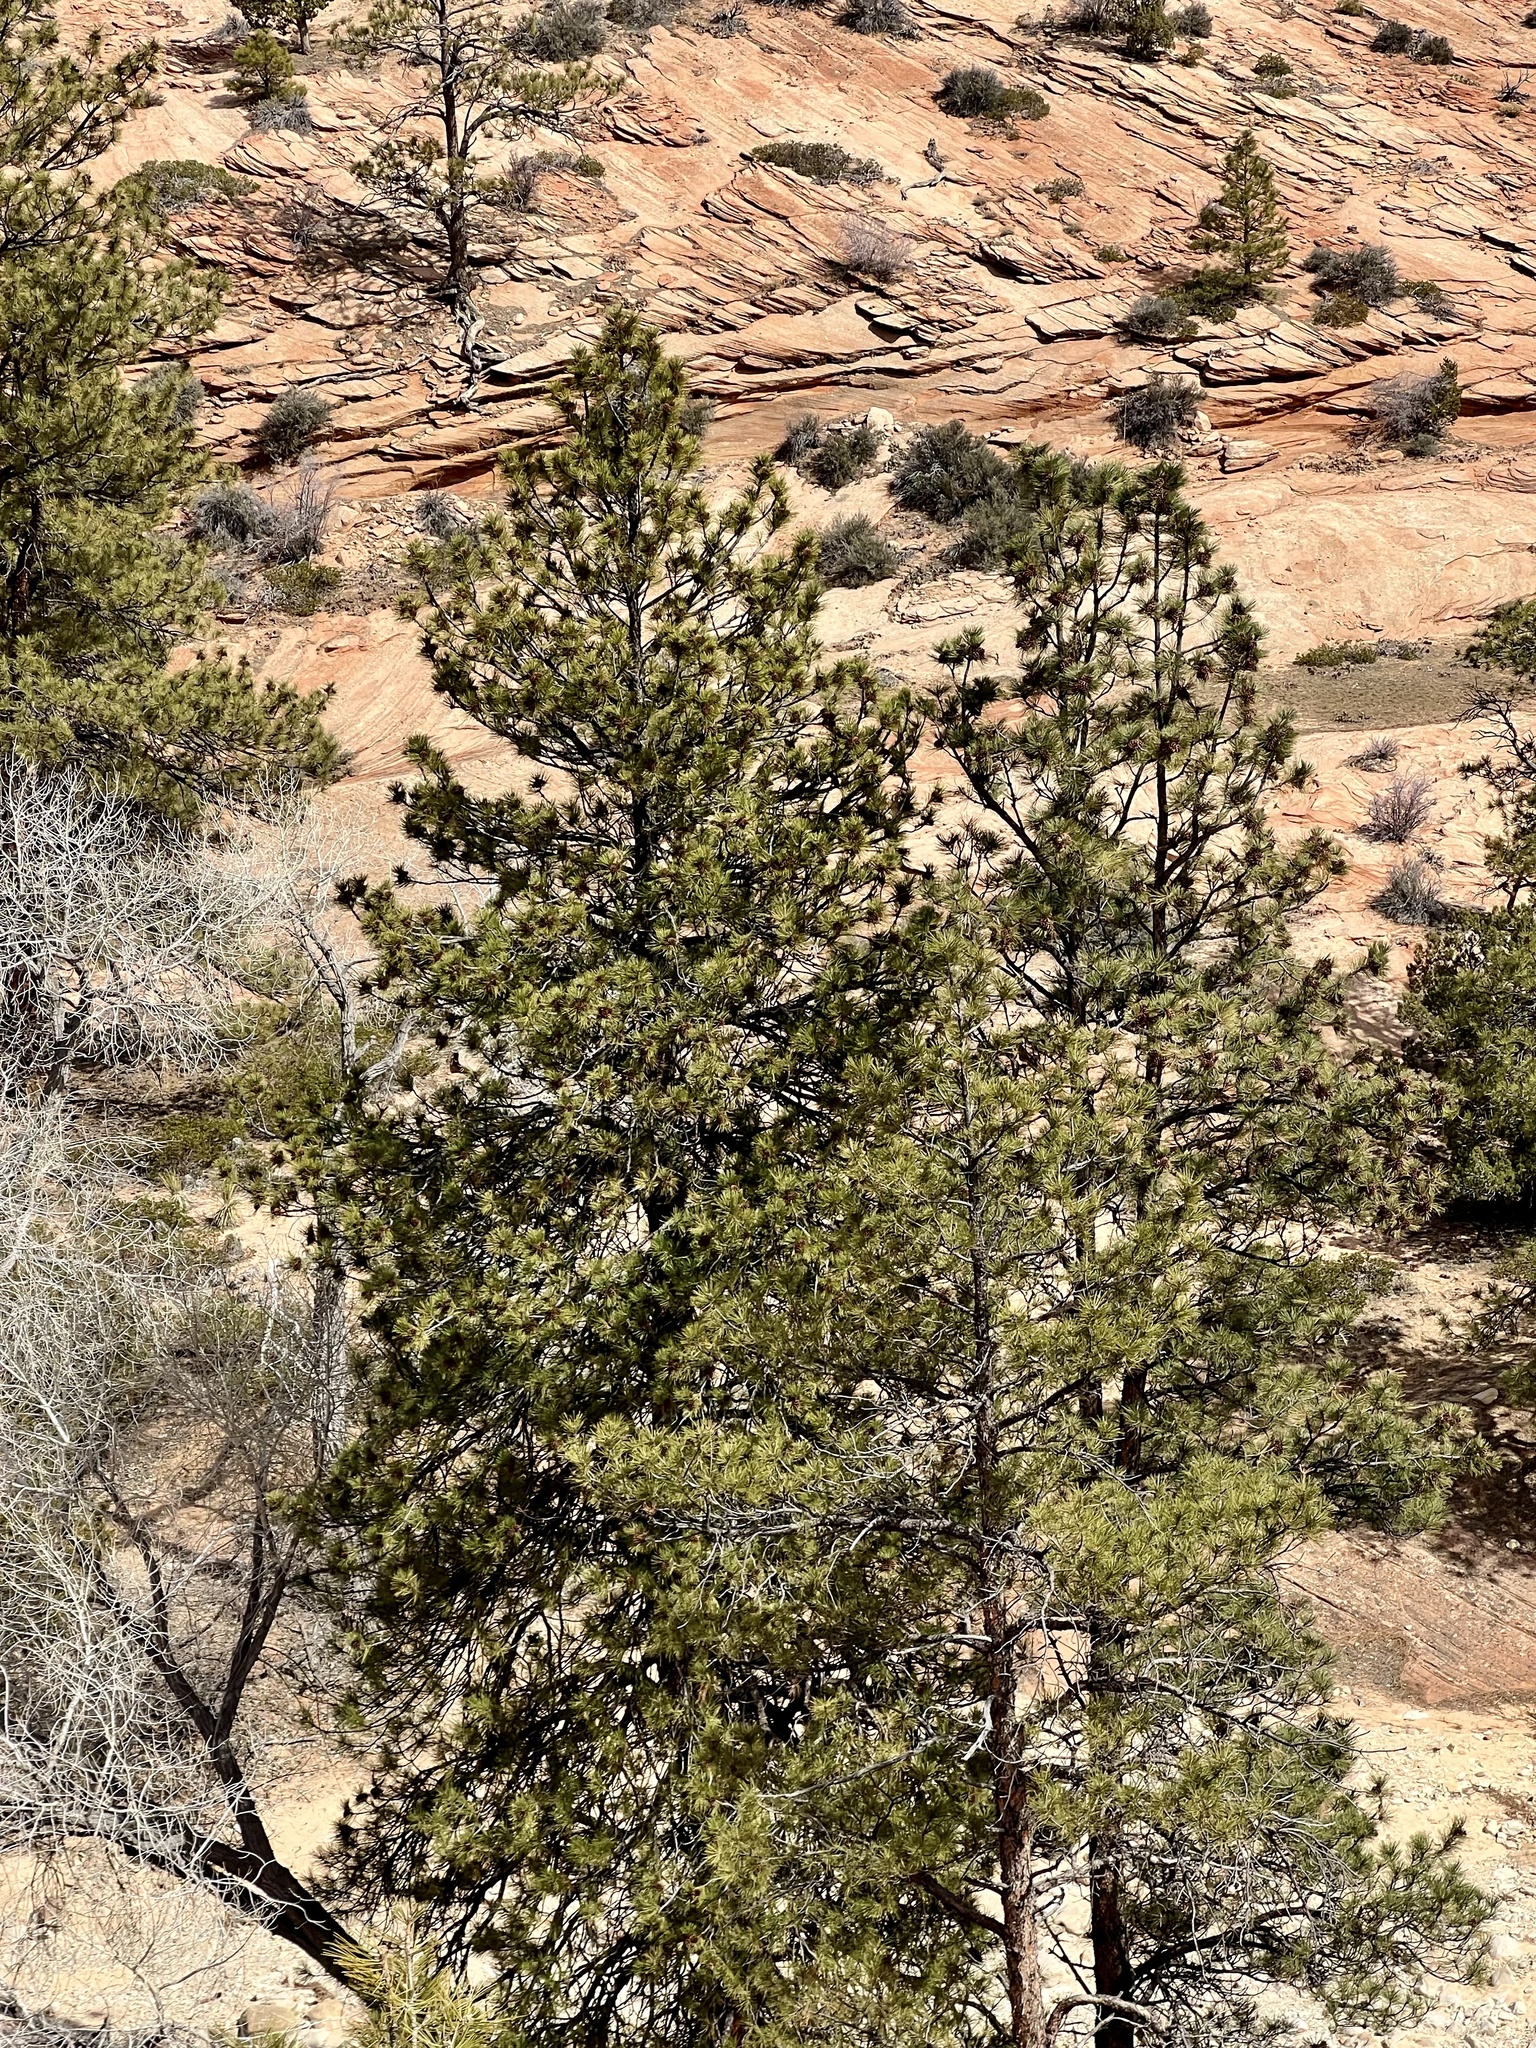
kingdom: Plantae
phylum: Tracheophyta
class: Pinopsida
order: Pinales
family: Pinaceae
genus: Pinus
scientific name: Pinus ponderosa
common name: Western yellow-pine
